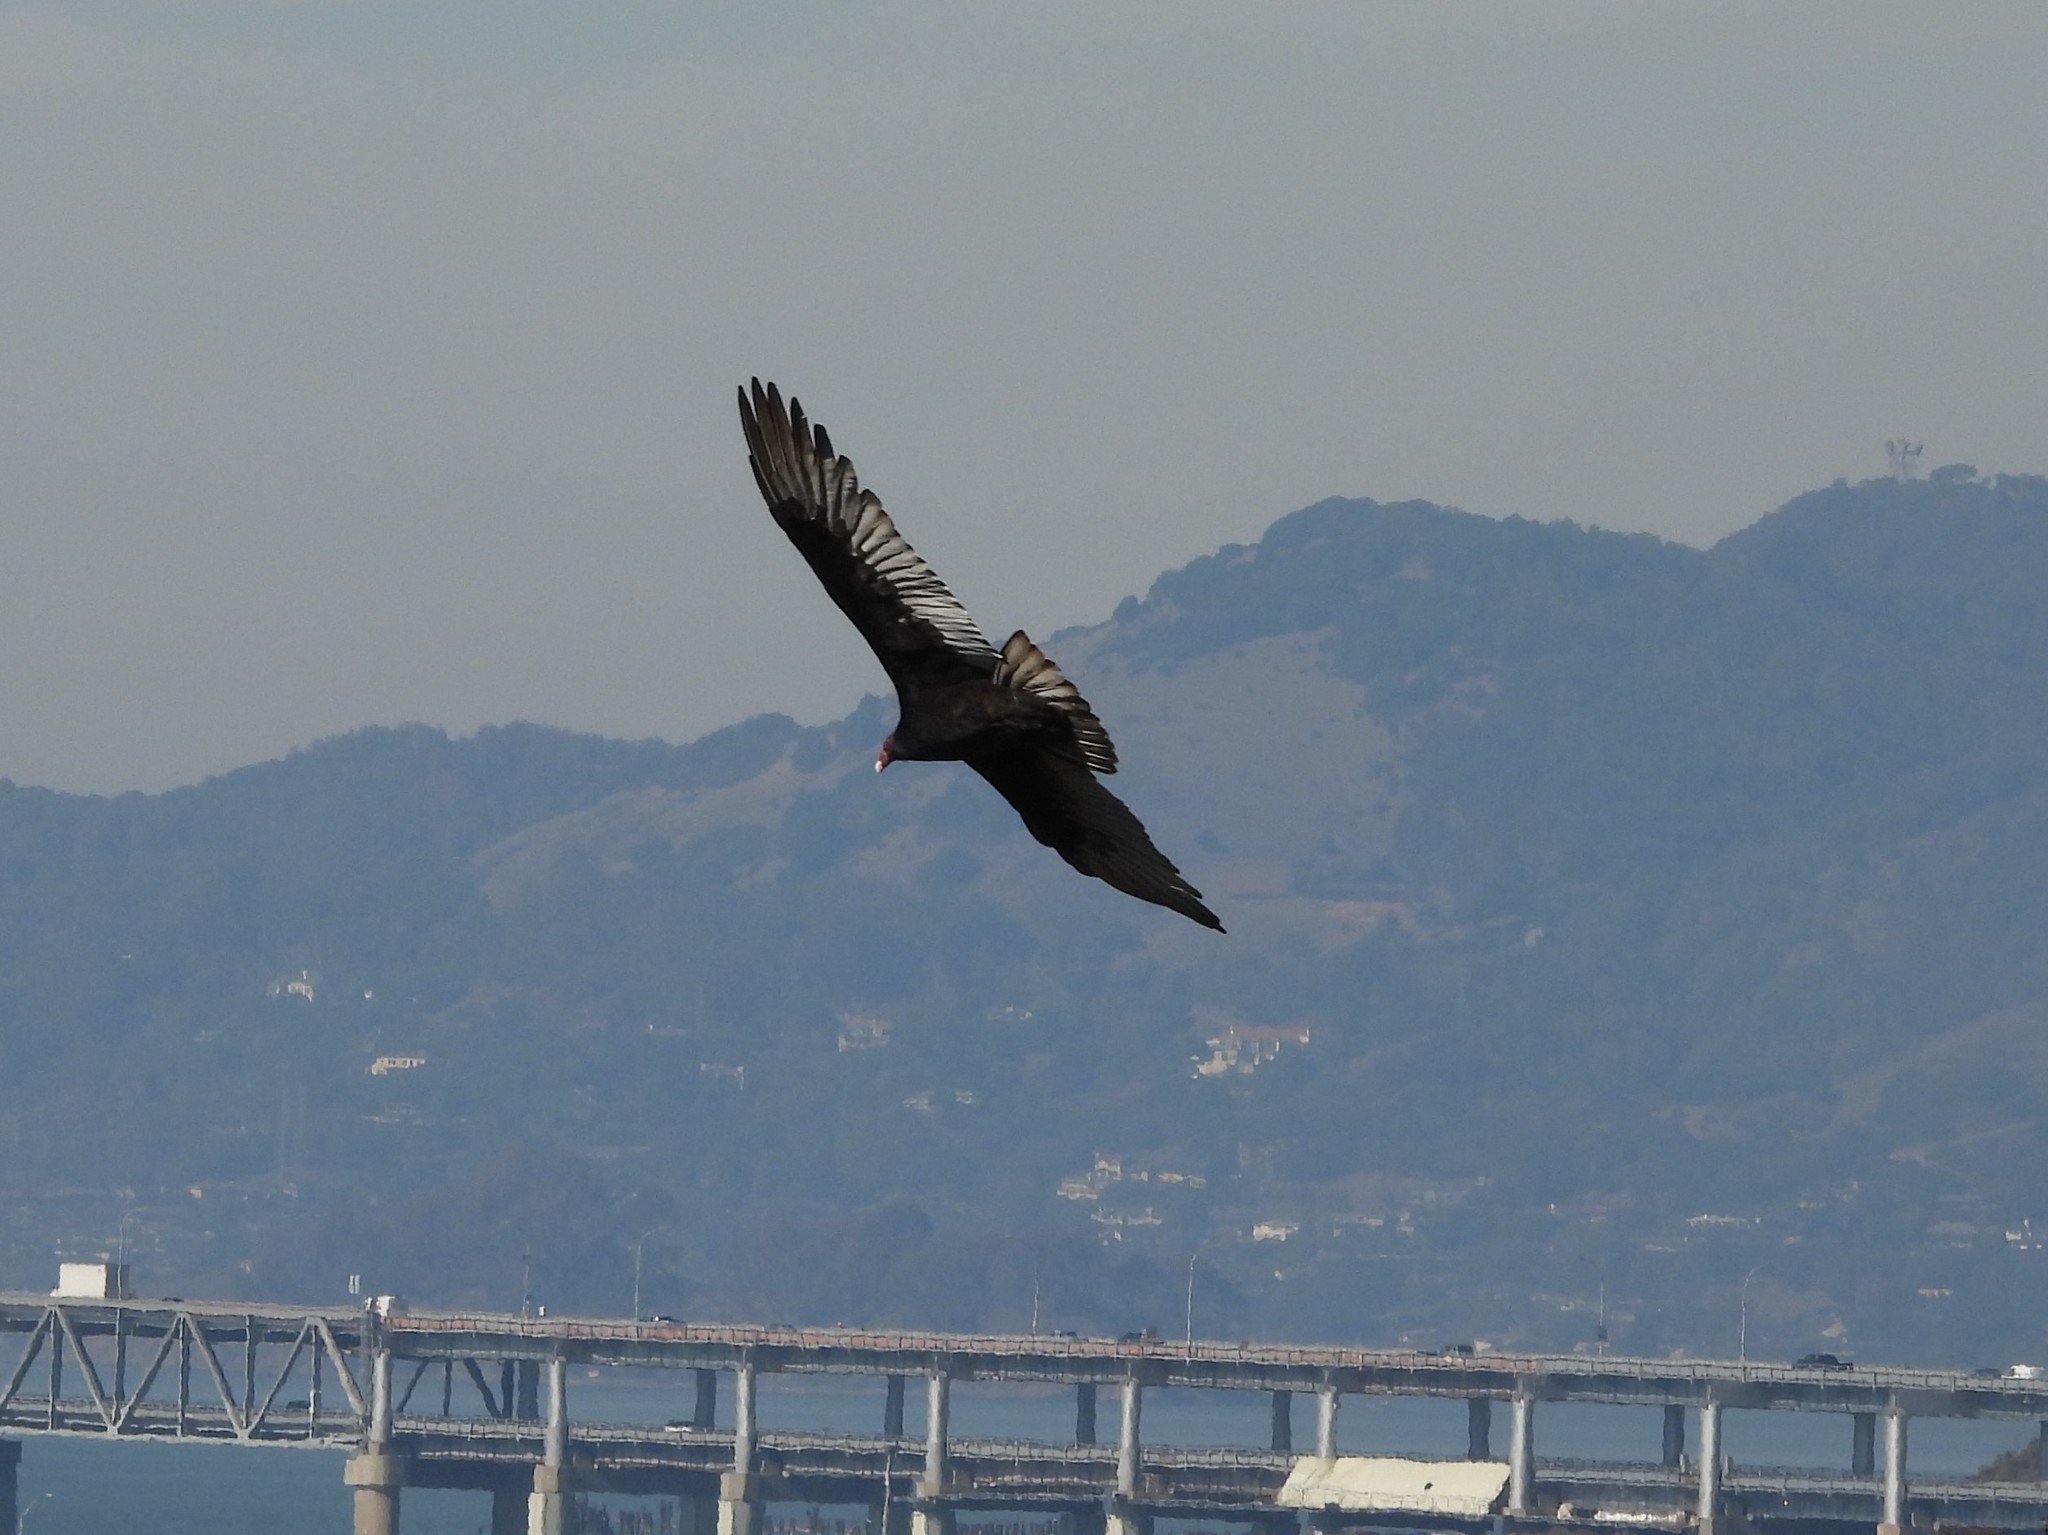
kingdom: Animalia
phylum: Chordata
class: Aves
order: Accipitriformes
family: Cathartidae
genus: Cathartes
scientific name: Cathartes aura
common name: Turkey vulture
